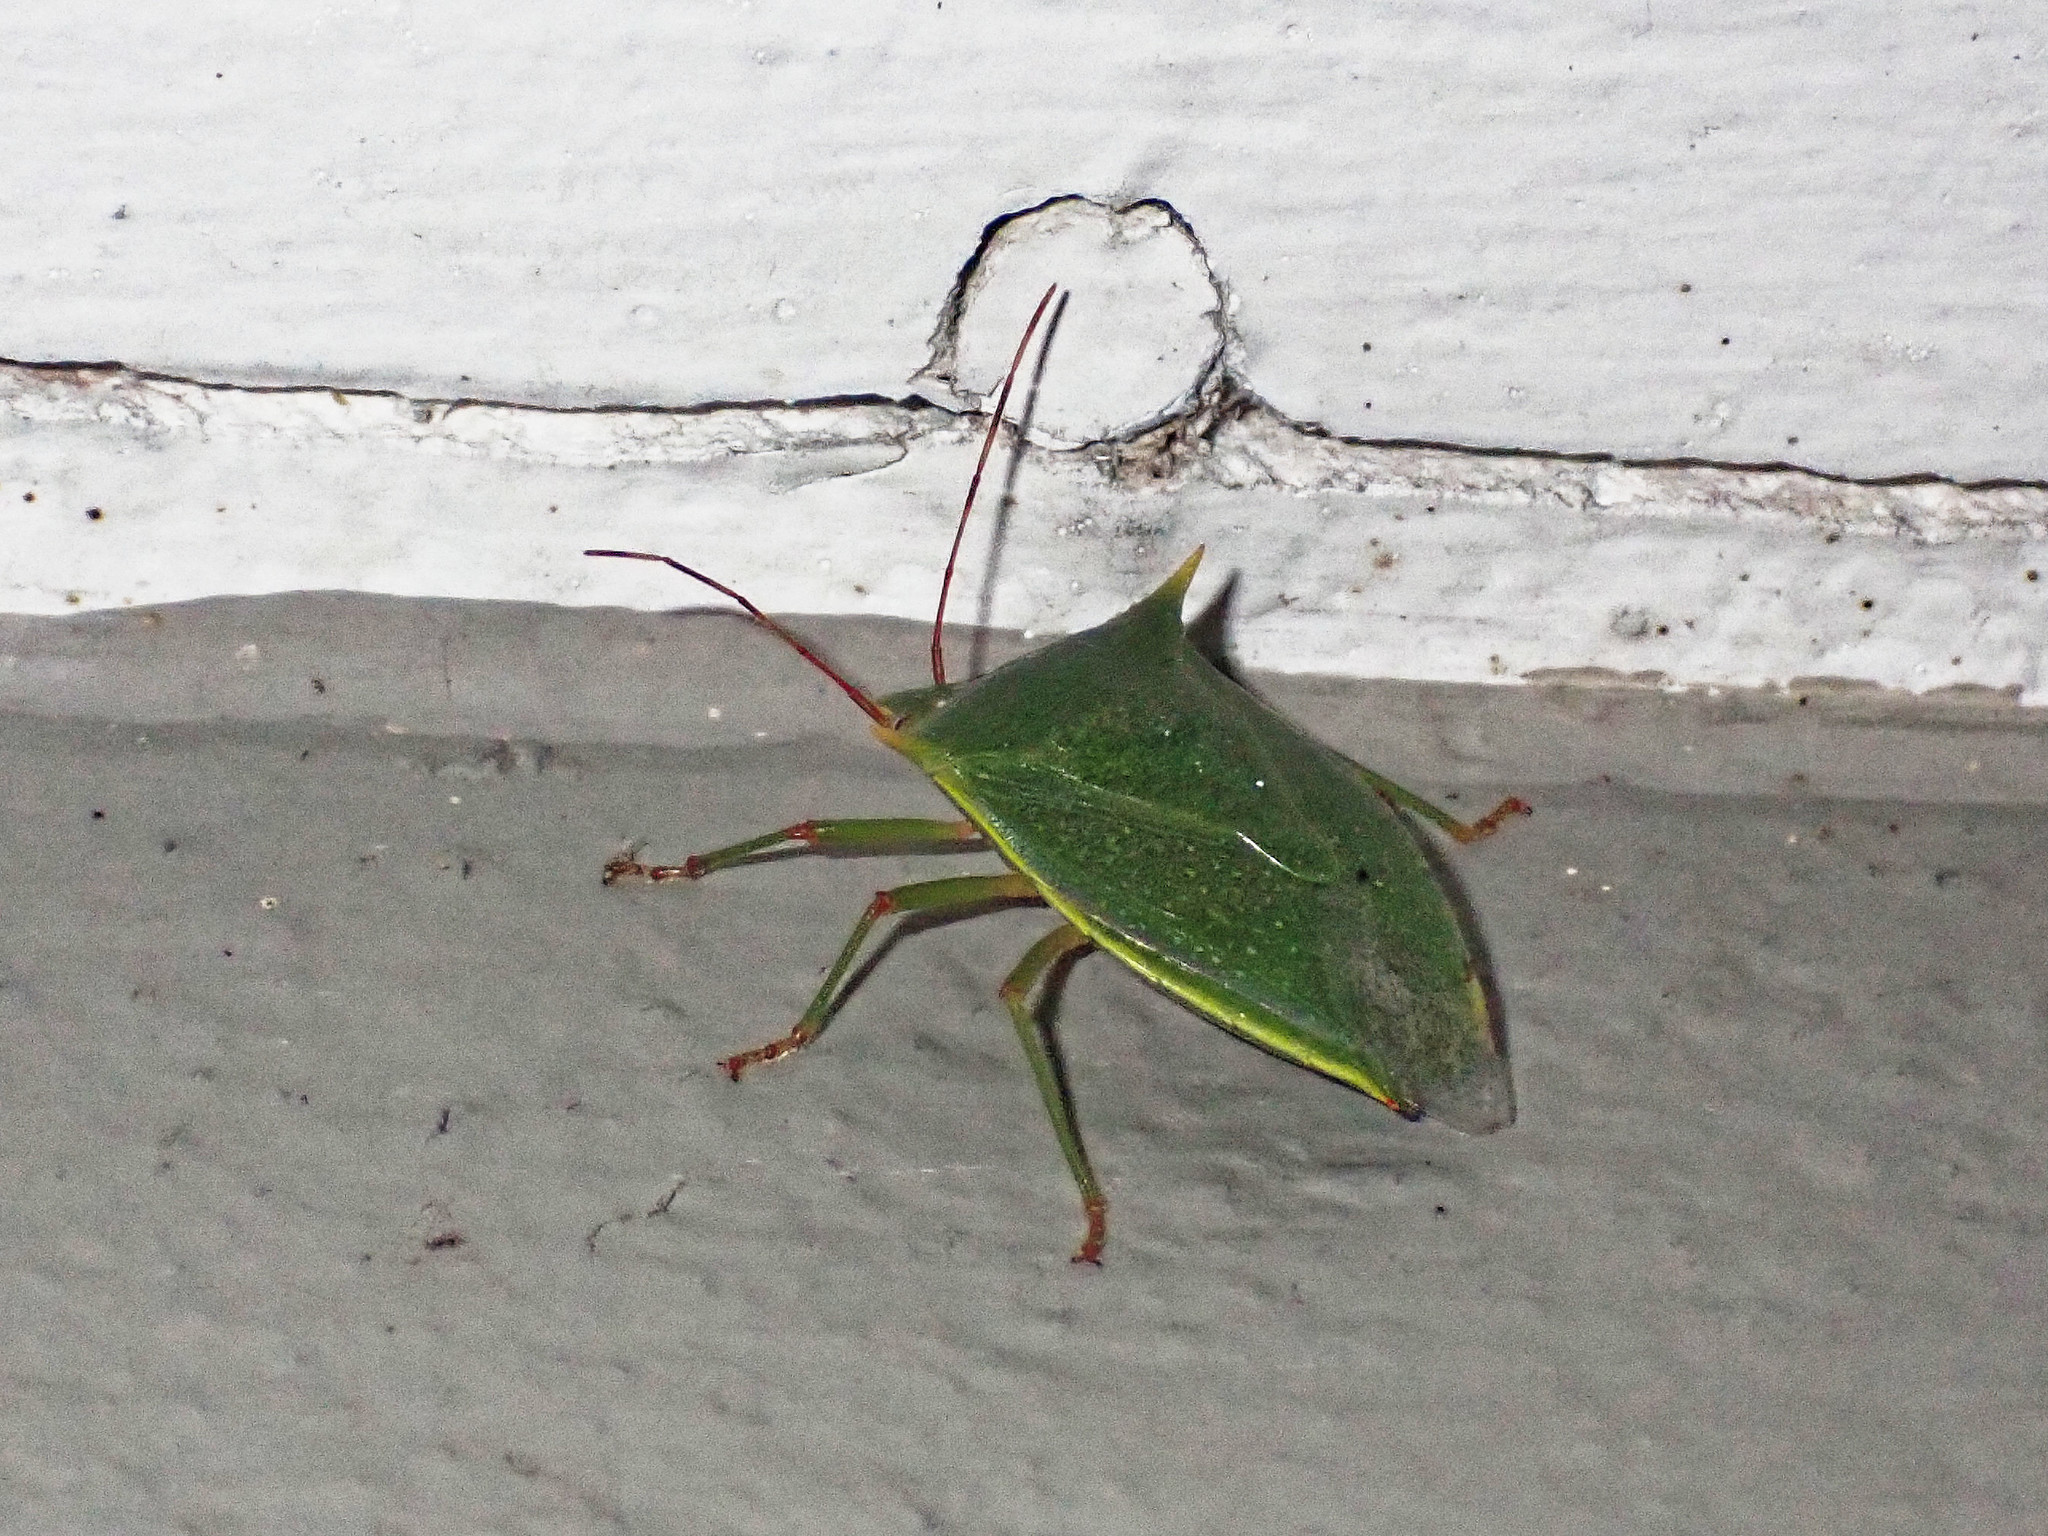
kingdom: Animalia
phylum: Arthropoda
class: Insecta
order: Hemiptera
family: Pentatomidae
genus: Loxa
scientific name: Loxa viridis
